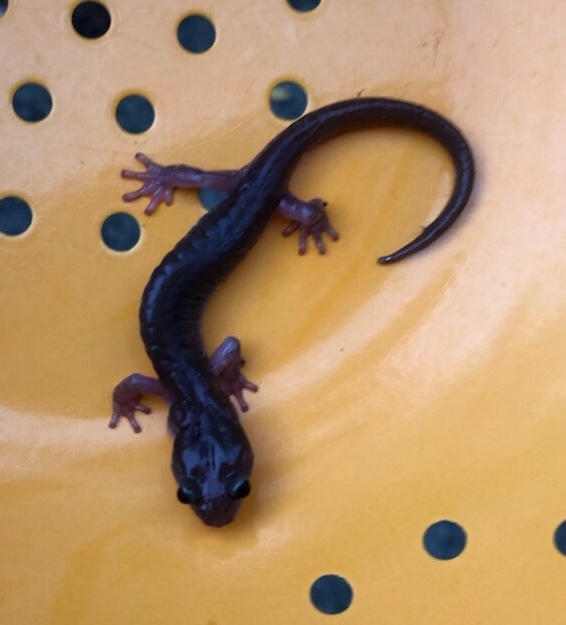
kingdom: Animalia
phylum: Chordata
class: Amphibia
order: Caudata
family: Plethodontidae
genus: Aneides
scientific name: Aneides lugubris
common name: Arboreal salamander
